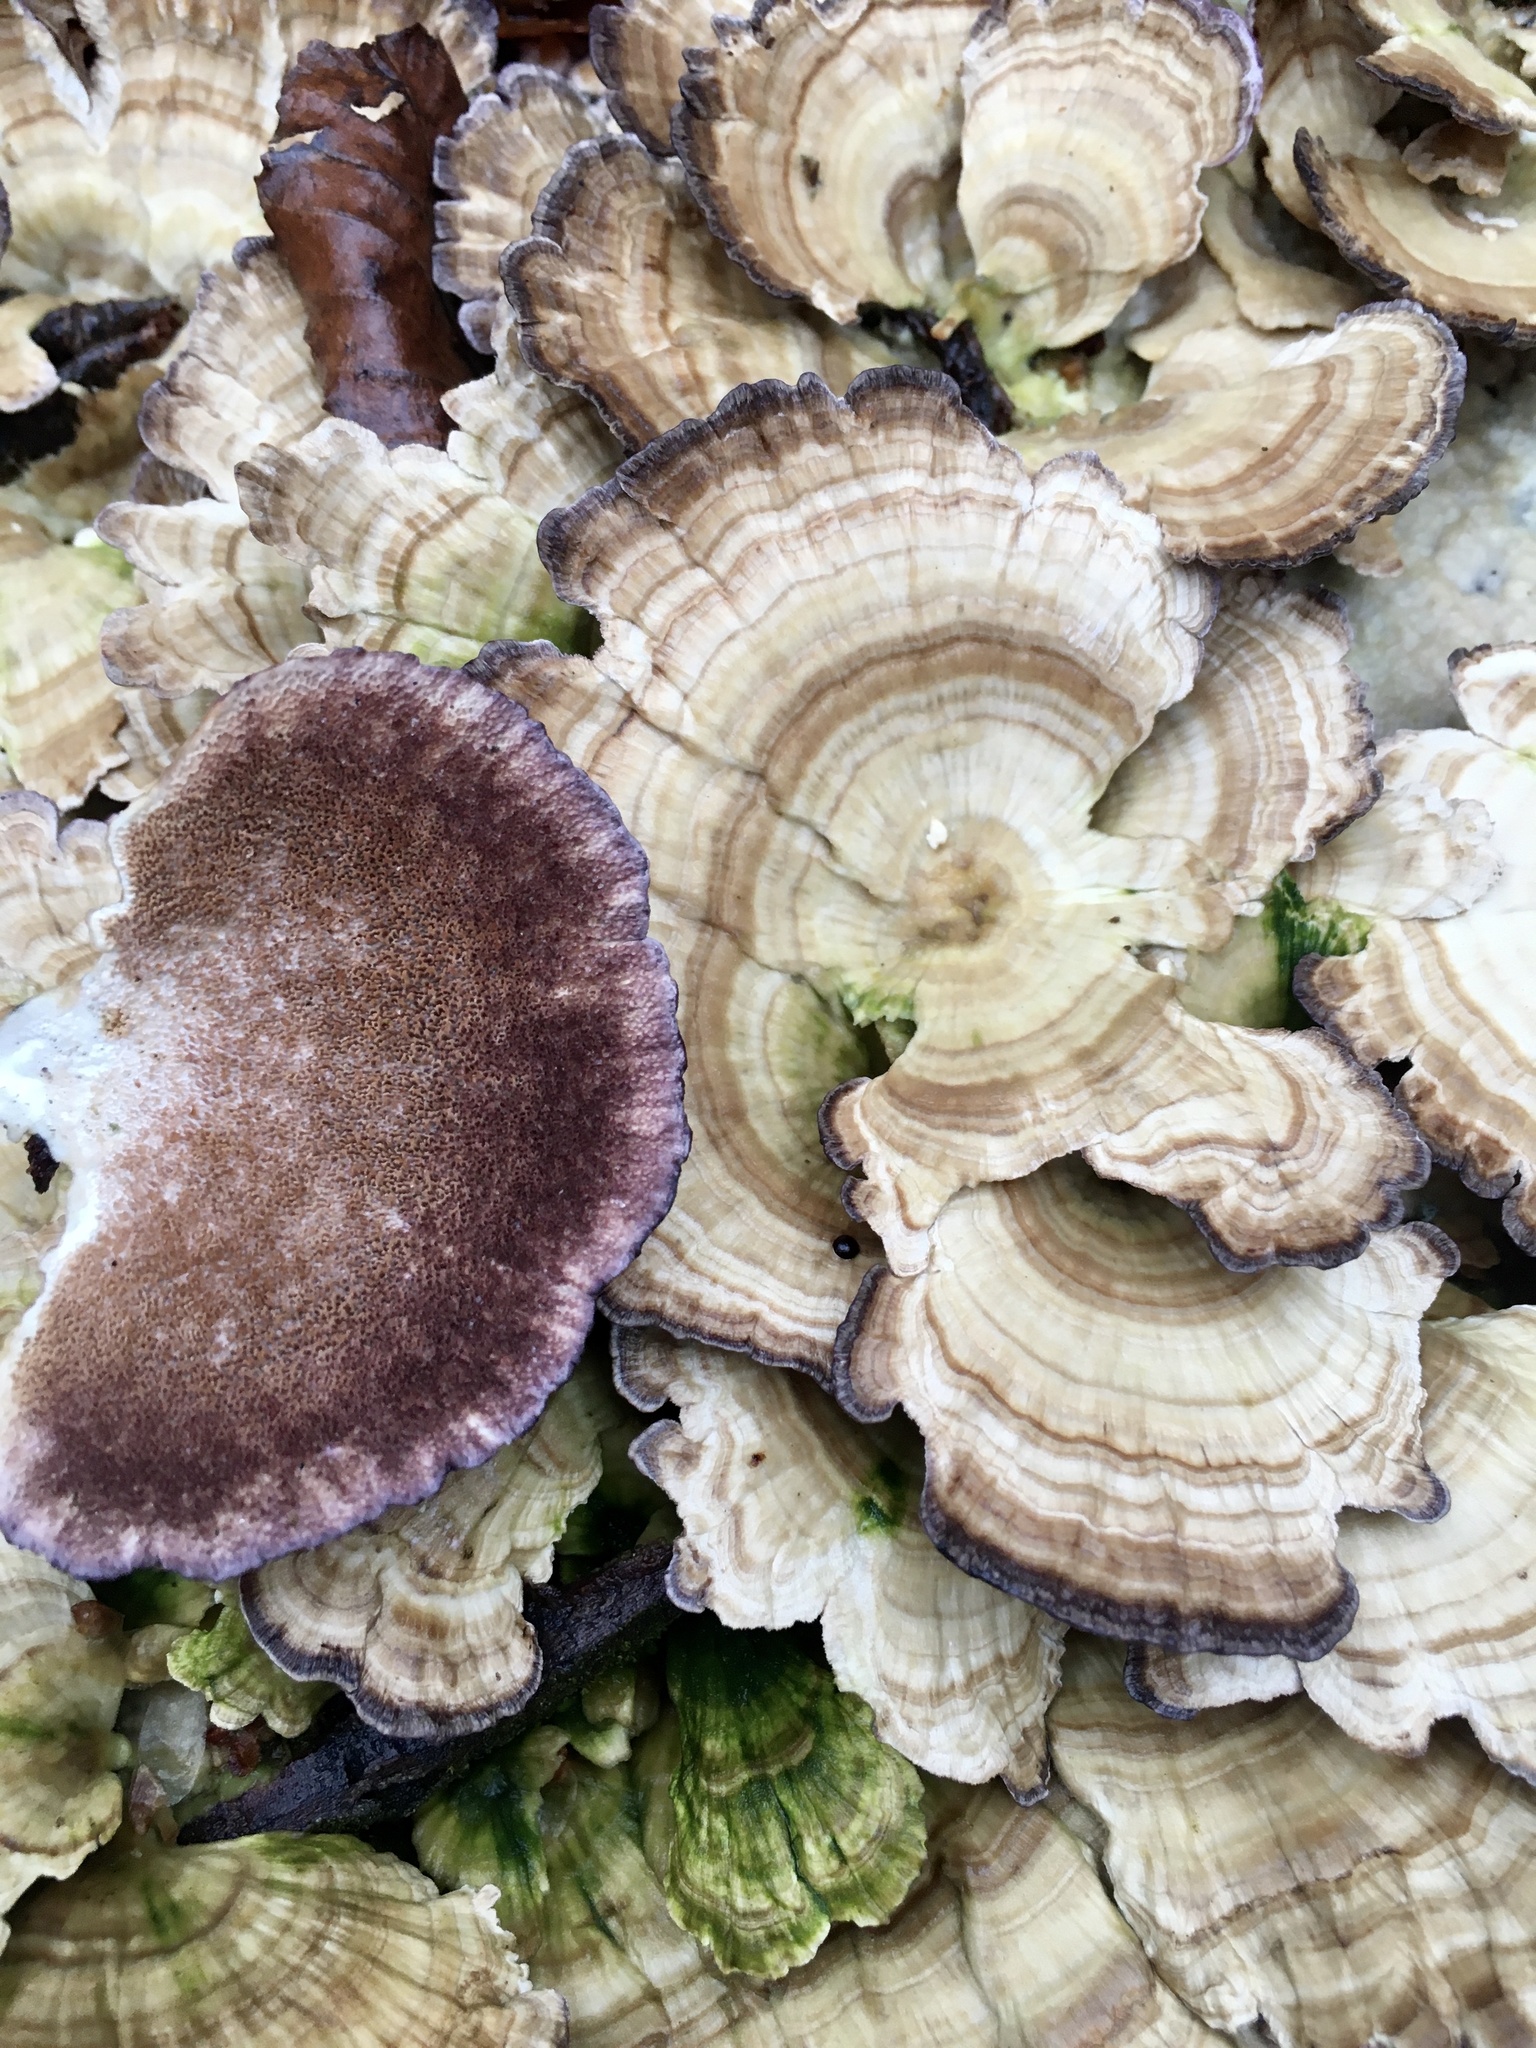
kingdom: Fungi
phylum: Basidiomycota
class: Agaricomycetes
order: Hymenochaetales
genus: Trichaptum
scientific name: Trichaptum biforme
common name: Violet-toothed polypore
